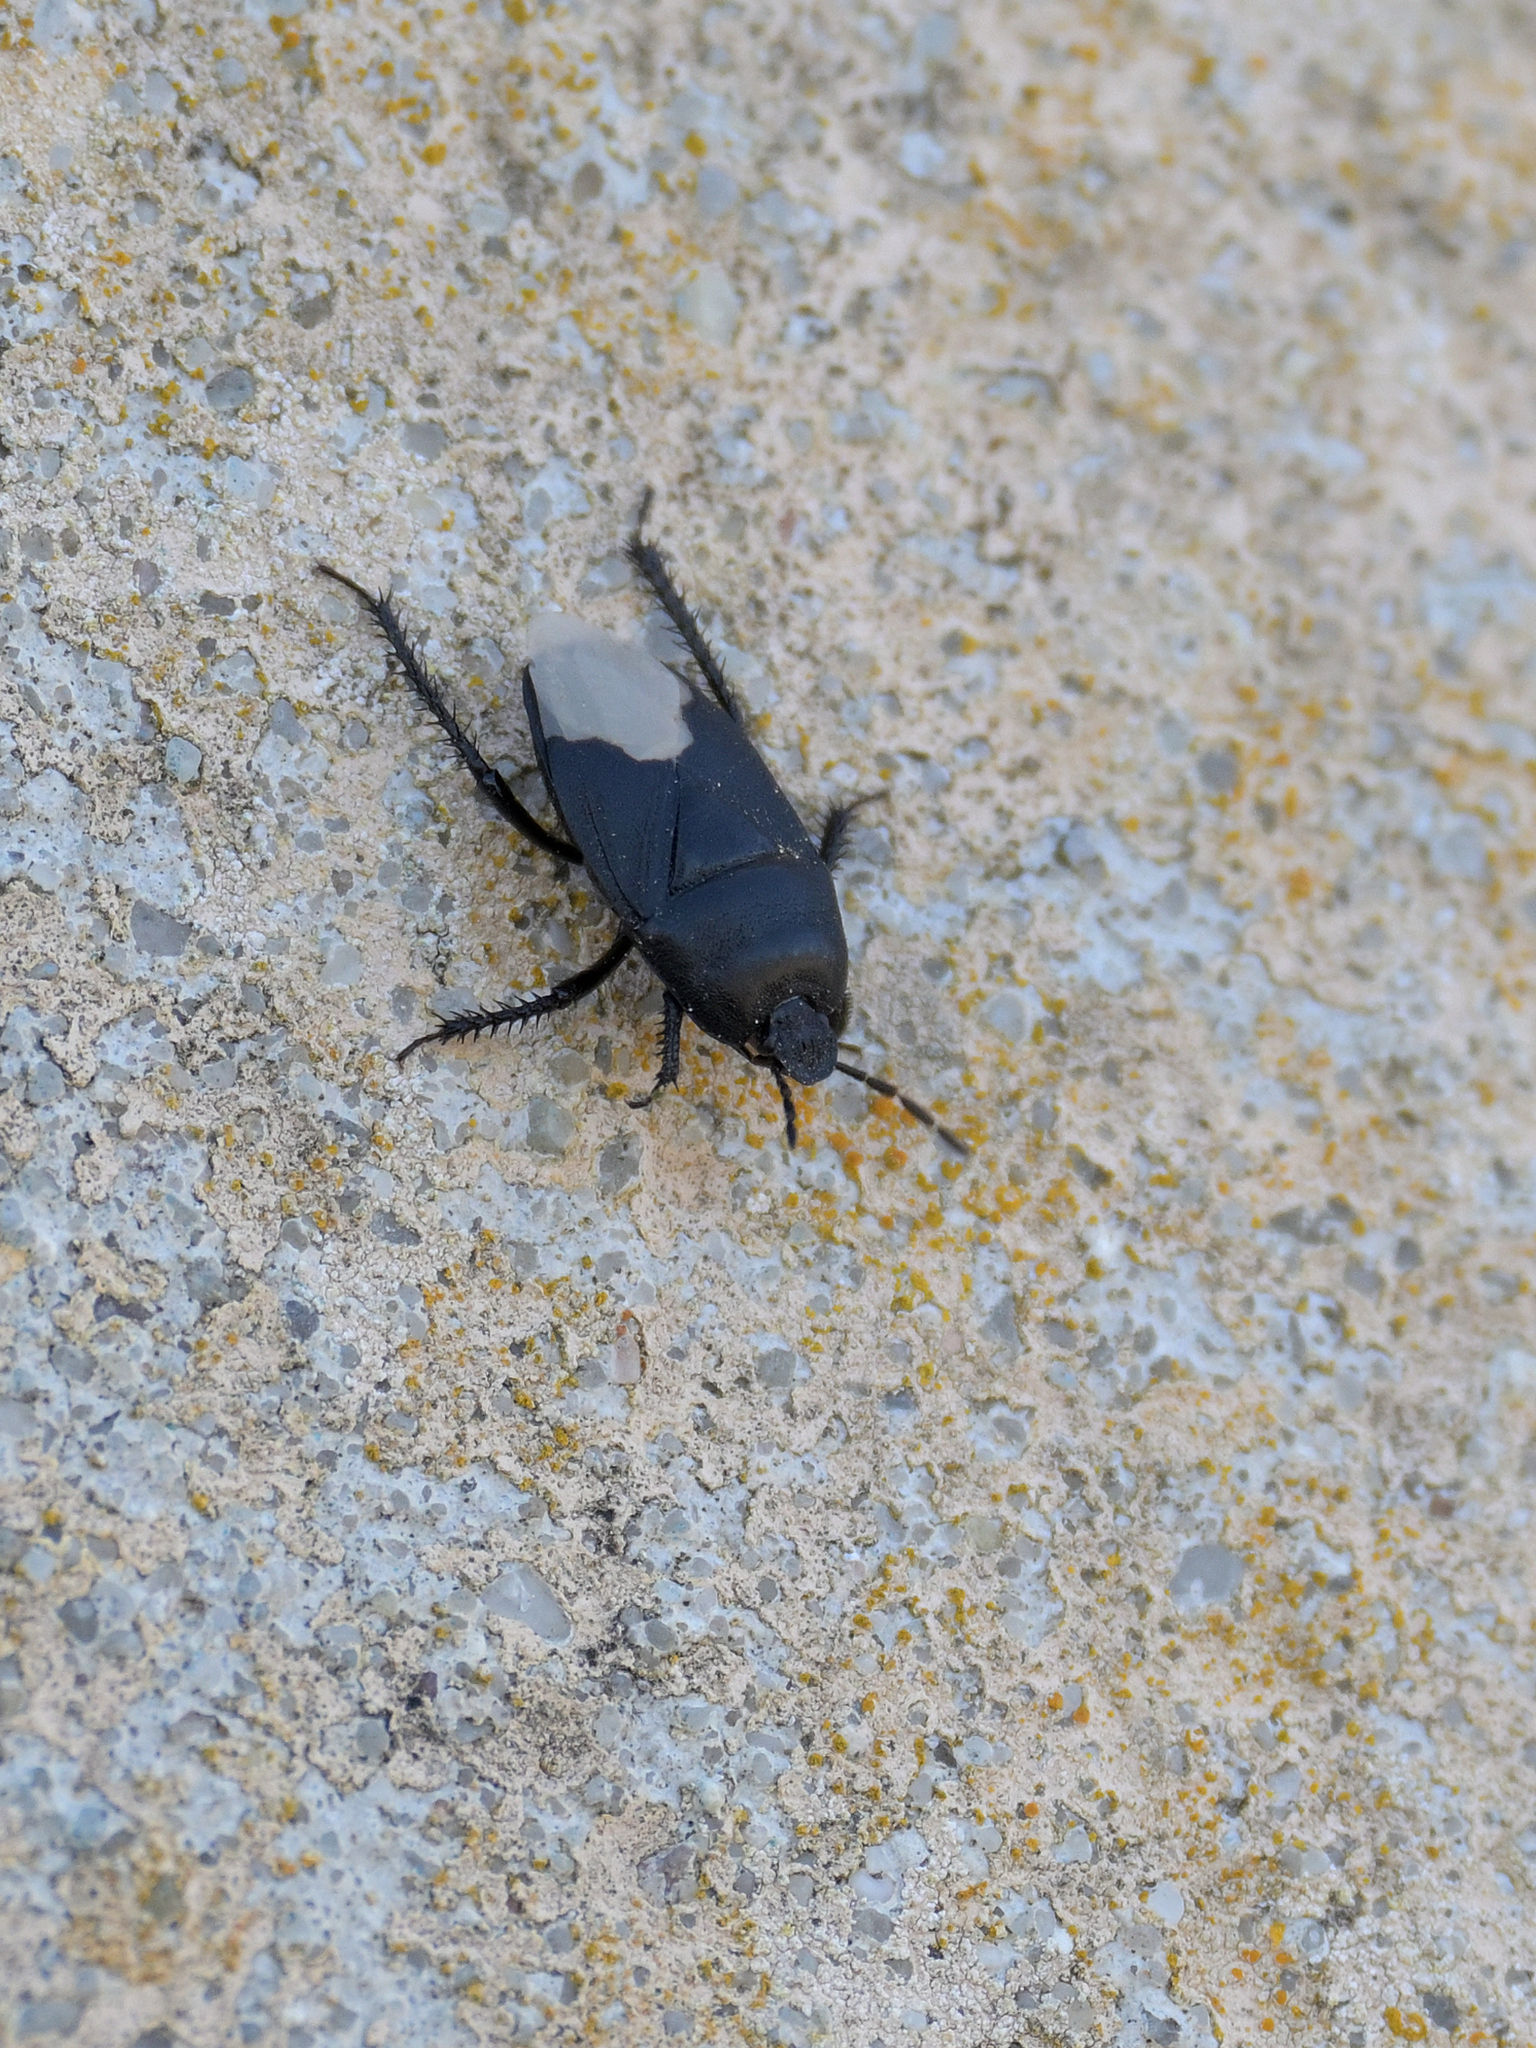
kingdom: Animalia
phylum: Arthropoda
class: Insecta
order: Hemiptera
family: Cydnidae
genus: Cydnus
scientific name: Cydnus aterrimus
